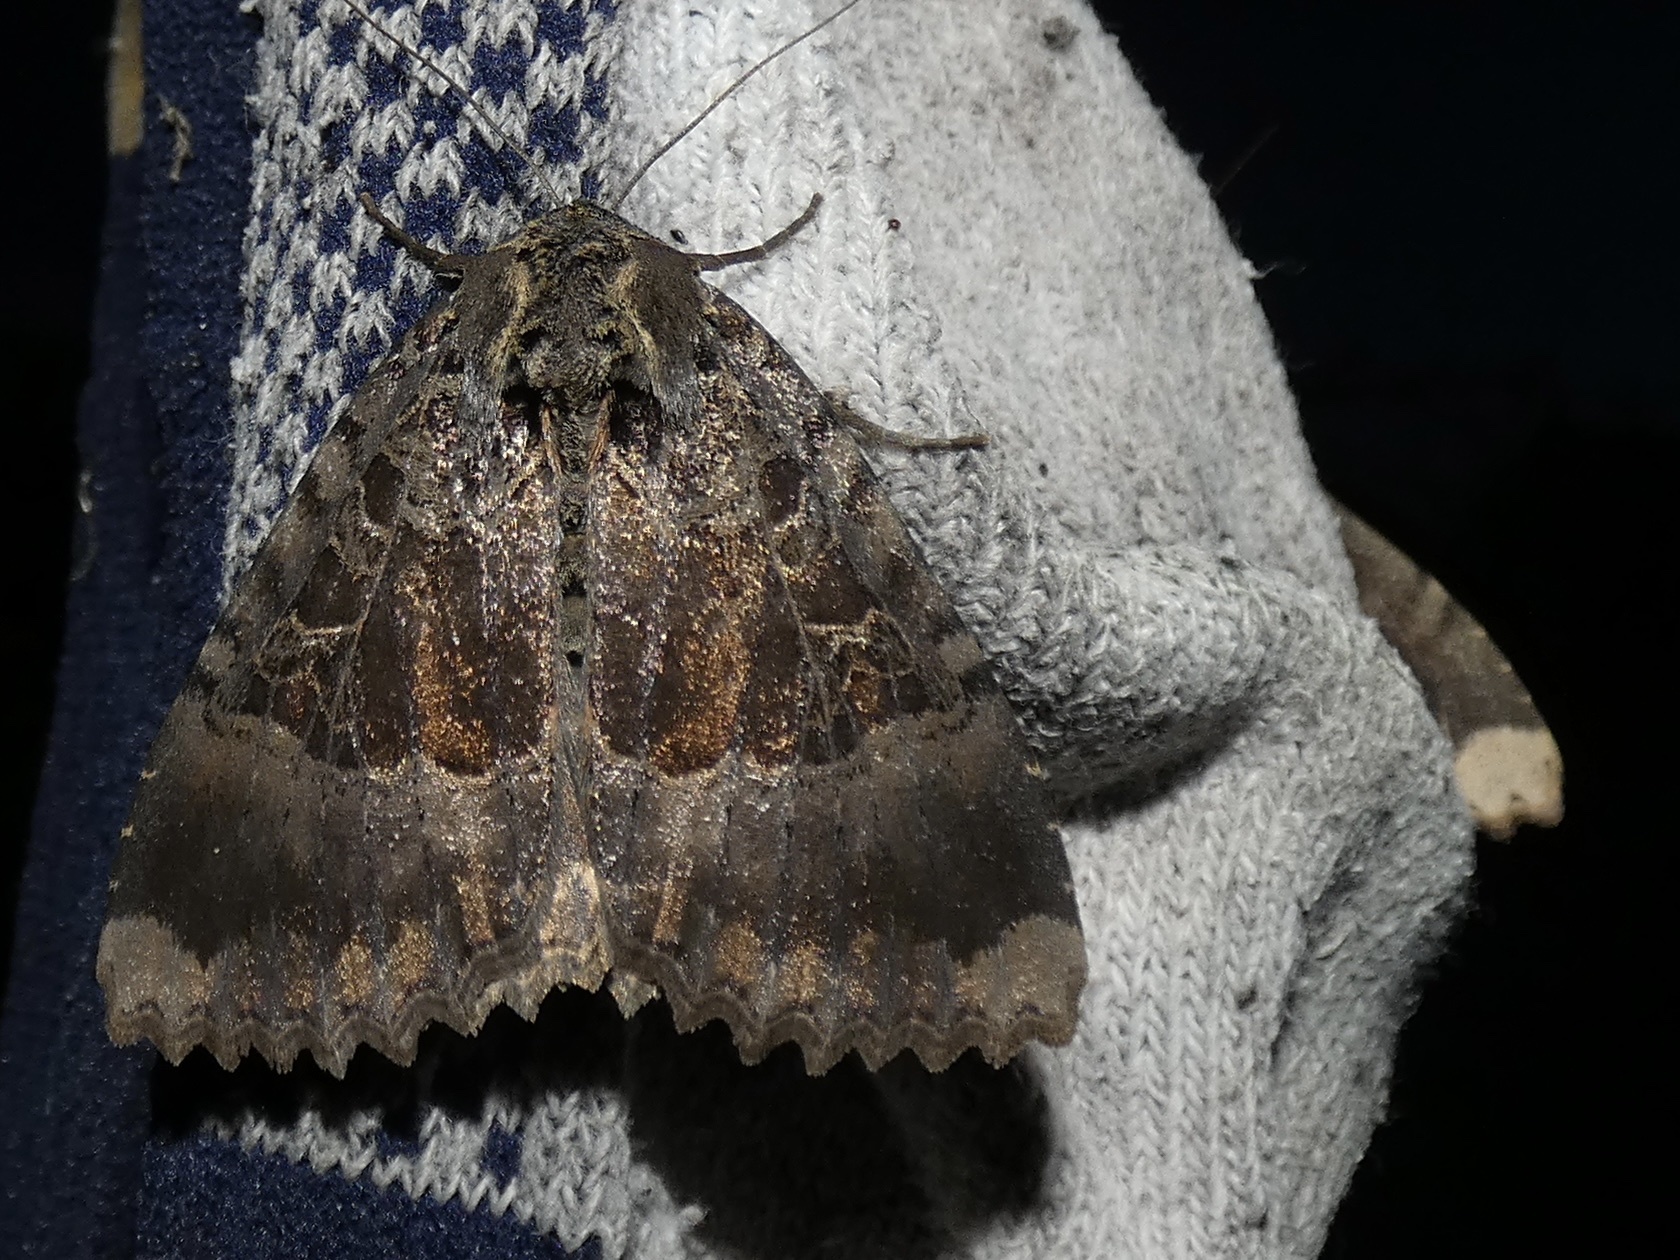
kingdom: Animalia
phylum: Arthropoda
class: Insecta
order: Lepidoptera
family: Noctuidae
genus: Mormo
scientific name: Mormo maura
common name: Old lady
